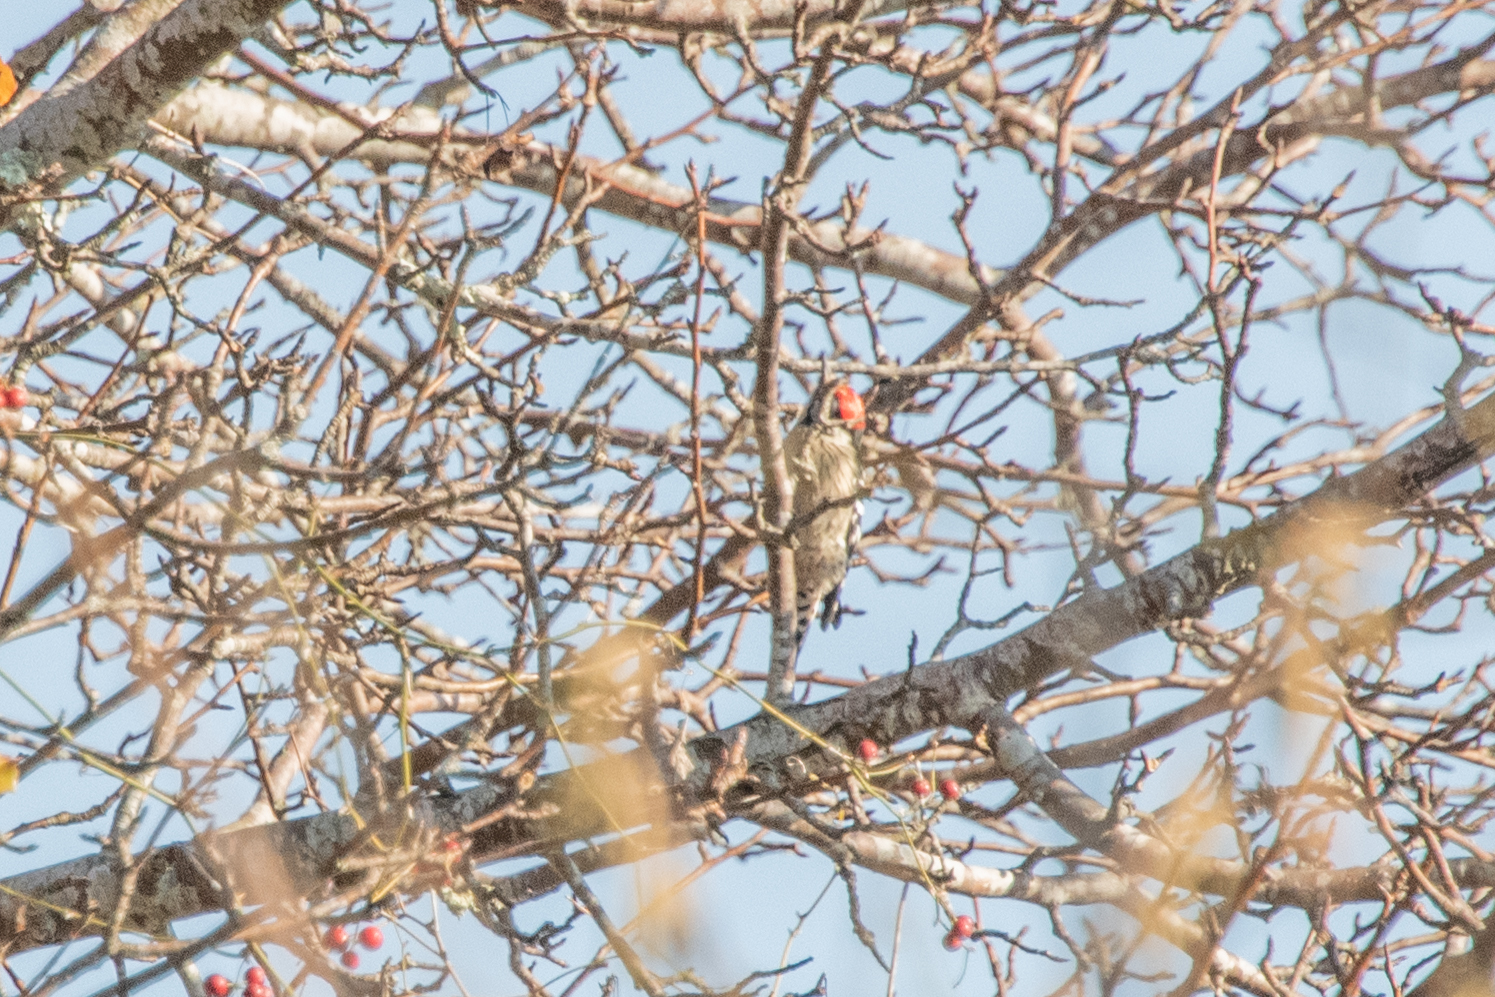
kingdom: Animalia
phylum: Chordata
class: Aves
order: Piciformes
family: Picidae
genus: Dryobates
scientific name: Dryobates minor
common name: Lesser spotted woodpecker
